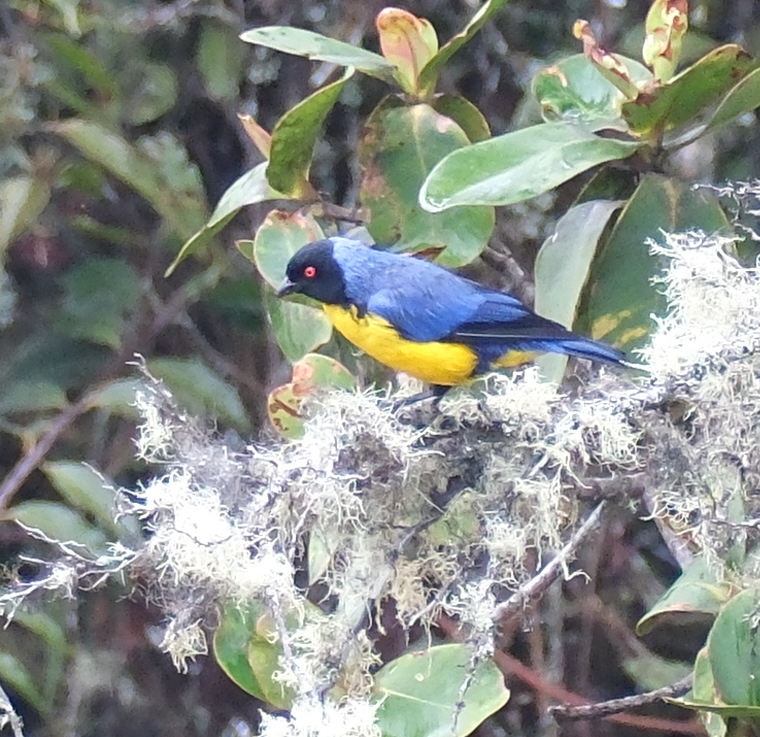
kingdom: Animalia
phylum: Chordata
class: Aves
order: Passeriformes
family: Thraupidae
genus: Buthraupis
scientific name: Buthraupis montana
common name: Hooded mountain tanager
